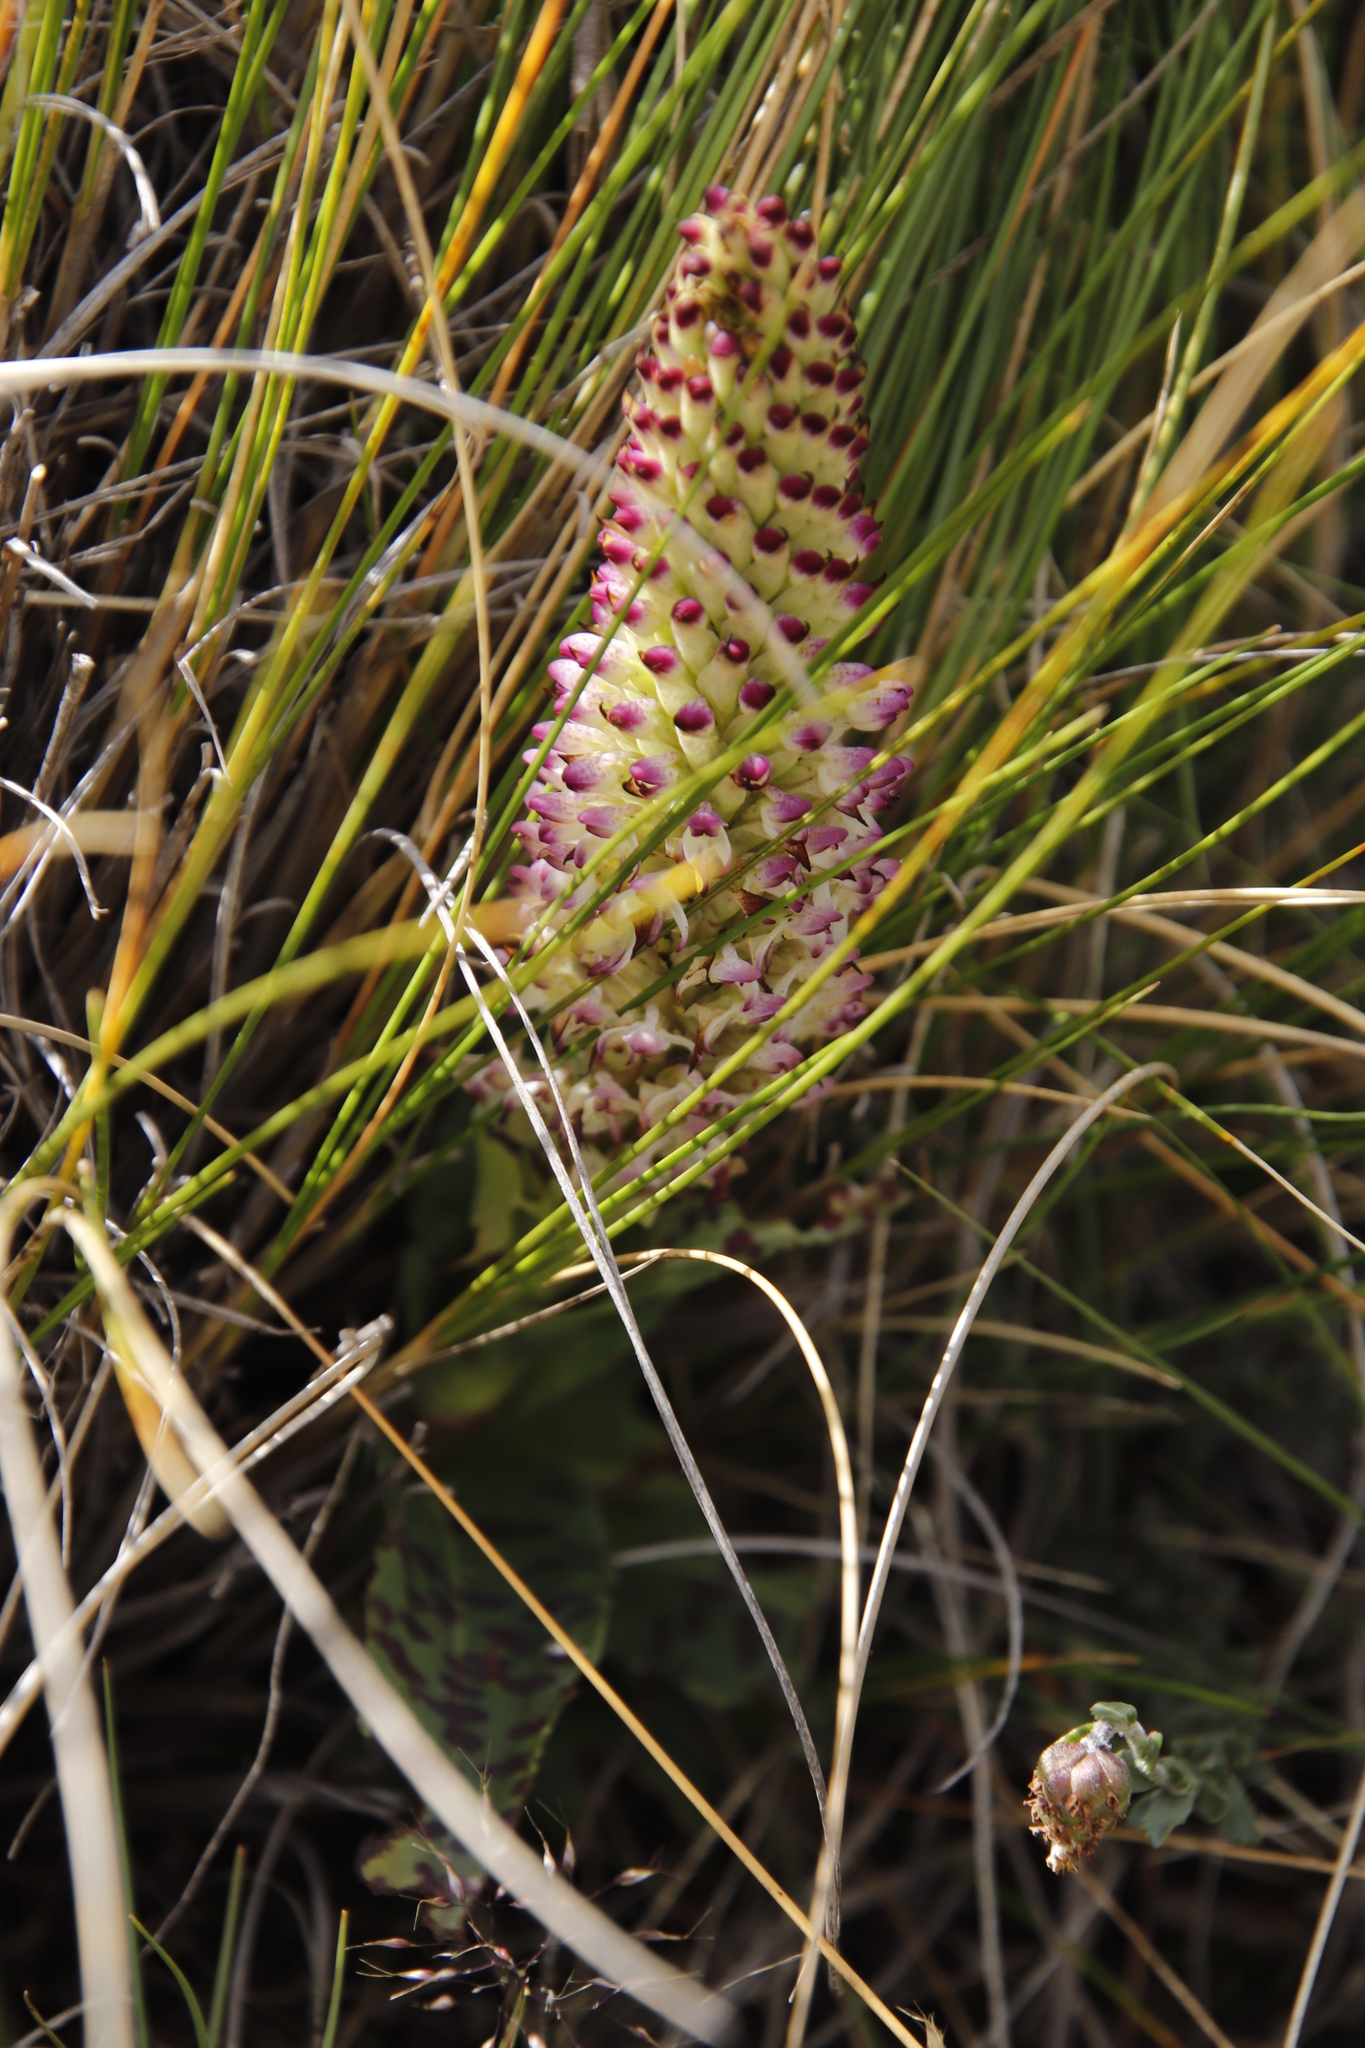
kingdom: Plantae
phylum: Tracheophyta
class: Liliopsida
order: Asparagales
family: Orchidaceae
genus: Disa
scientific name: Disa fragrans
